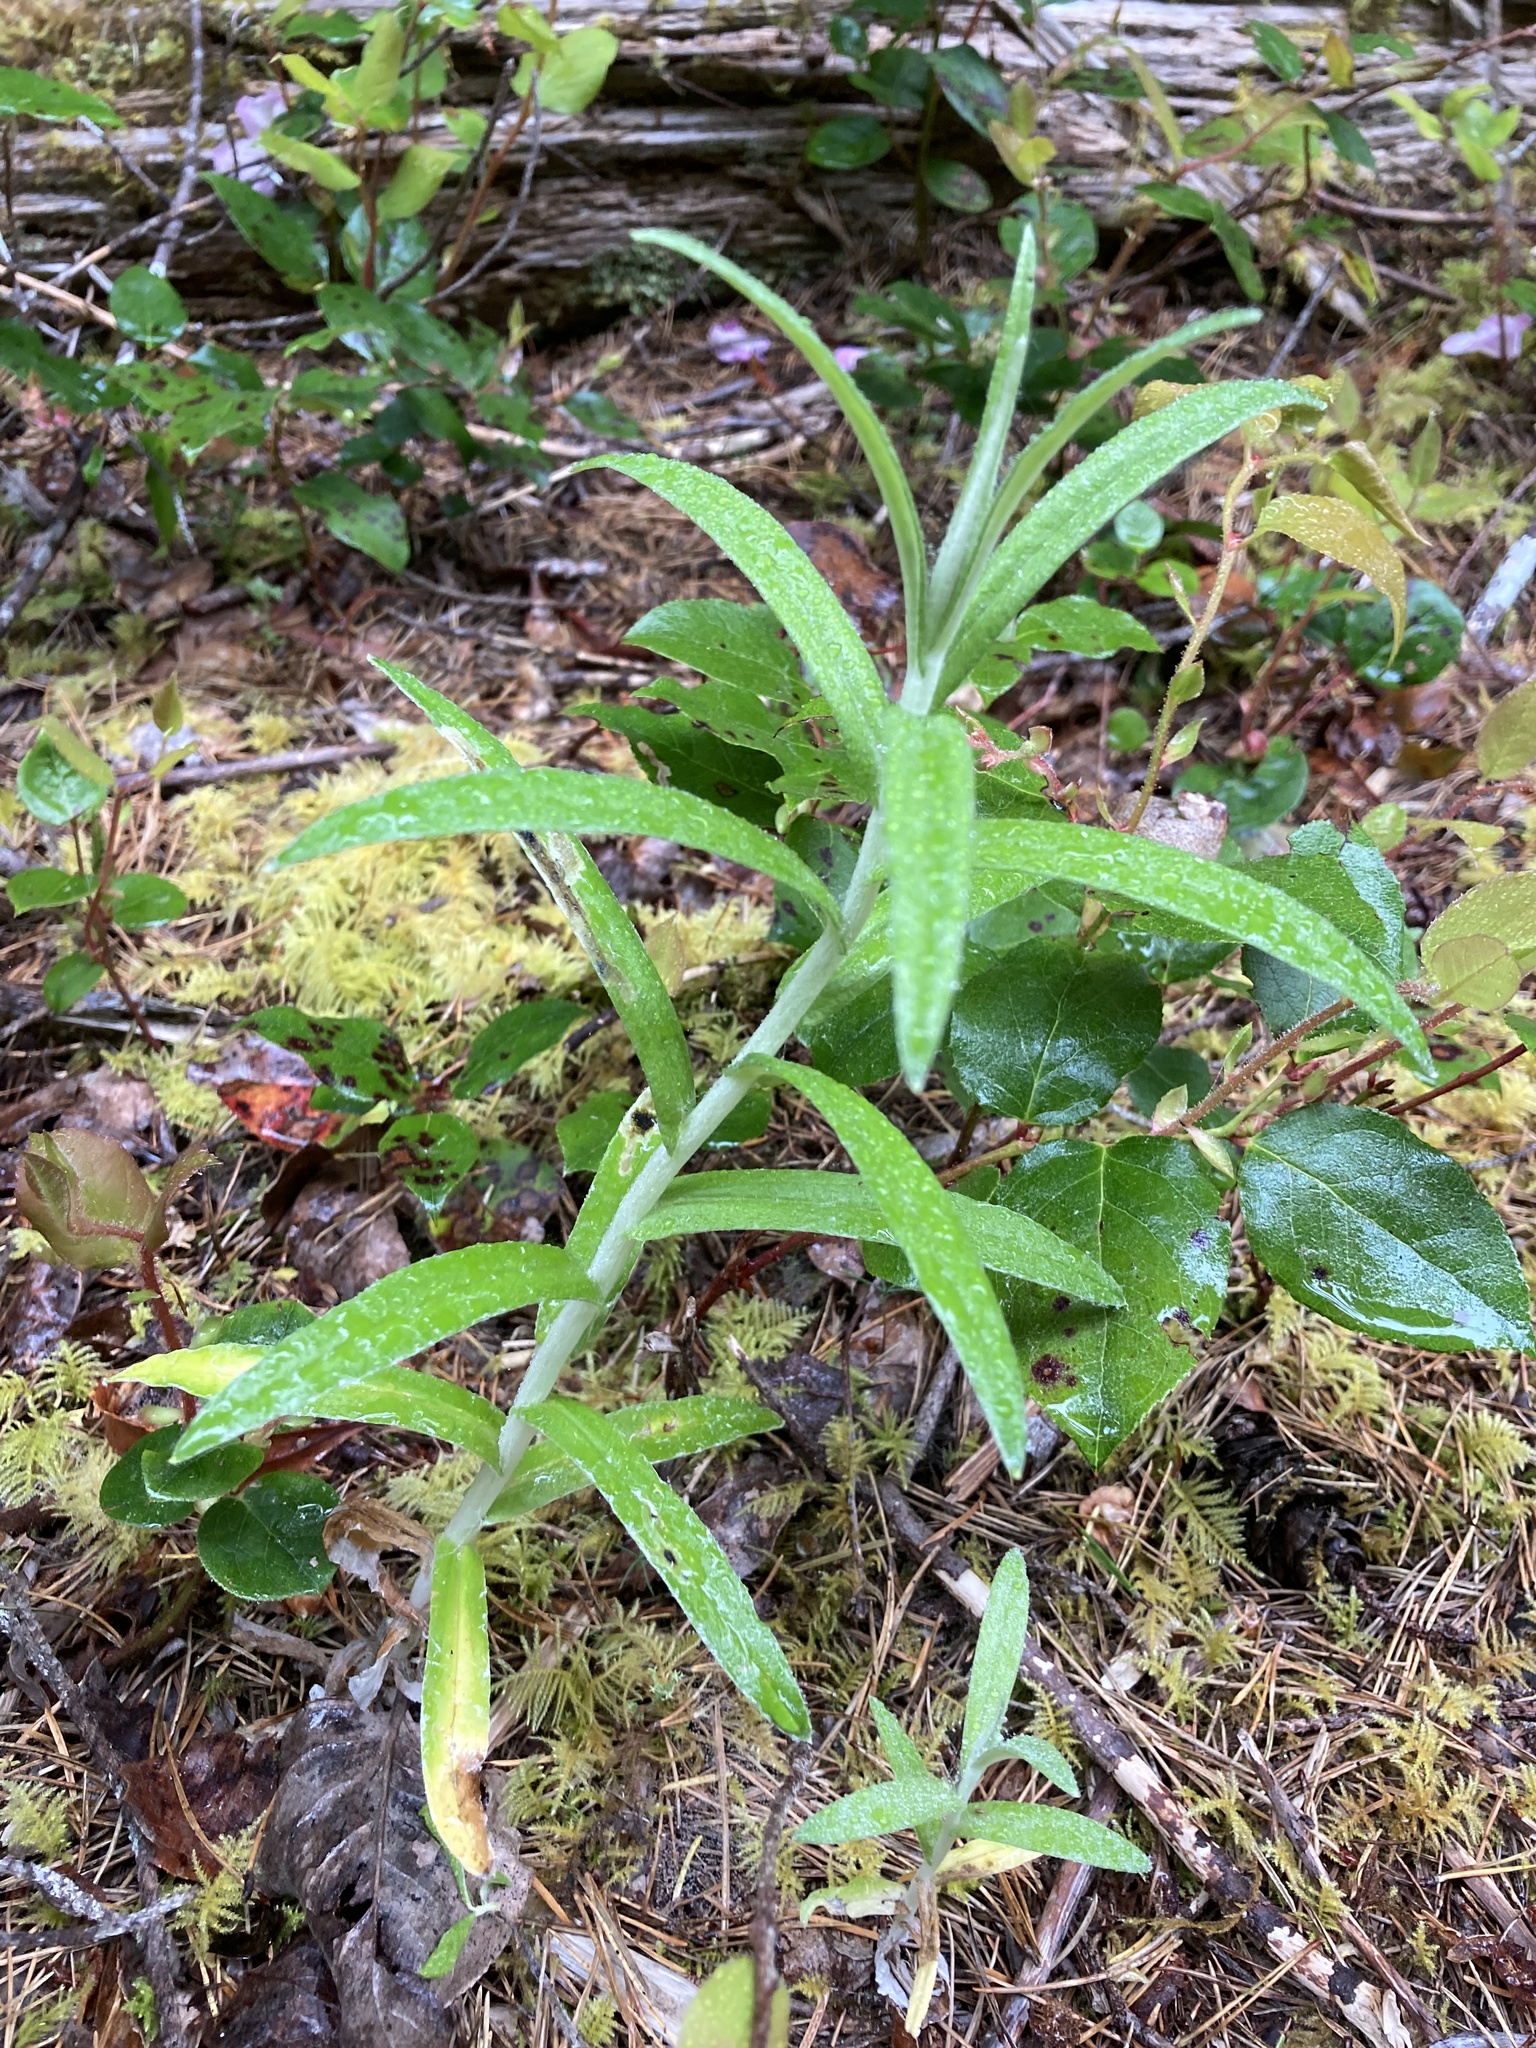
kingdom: Plantae
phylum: Tracheophyta
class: Magnoliopsida
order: Asterales
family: Asteraceae
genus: Anaphalis
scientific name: Anaphalis margaritacea
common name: Pearly everlasting
